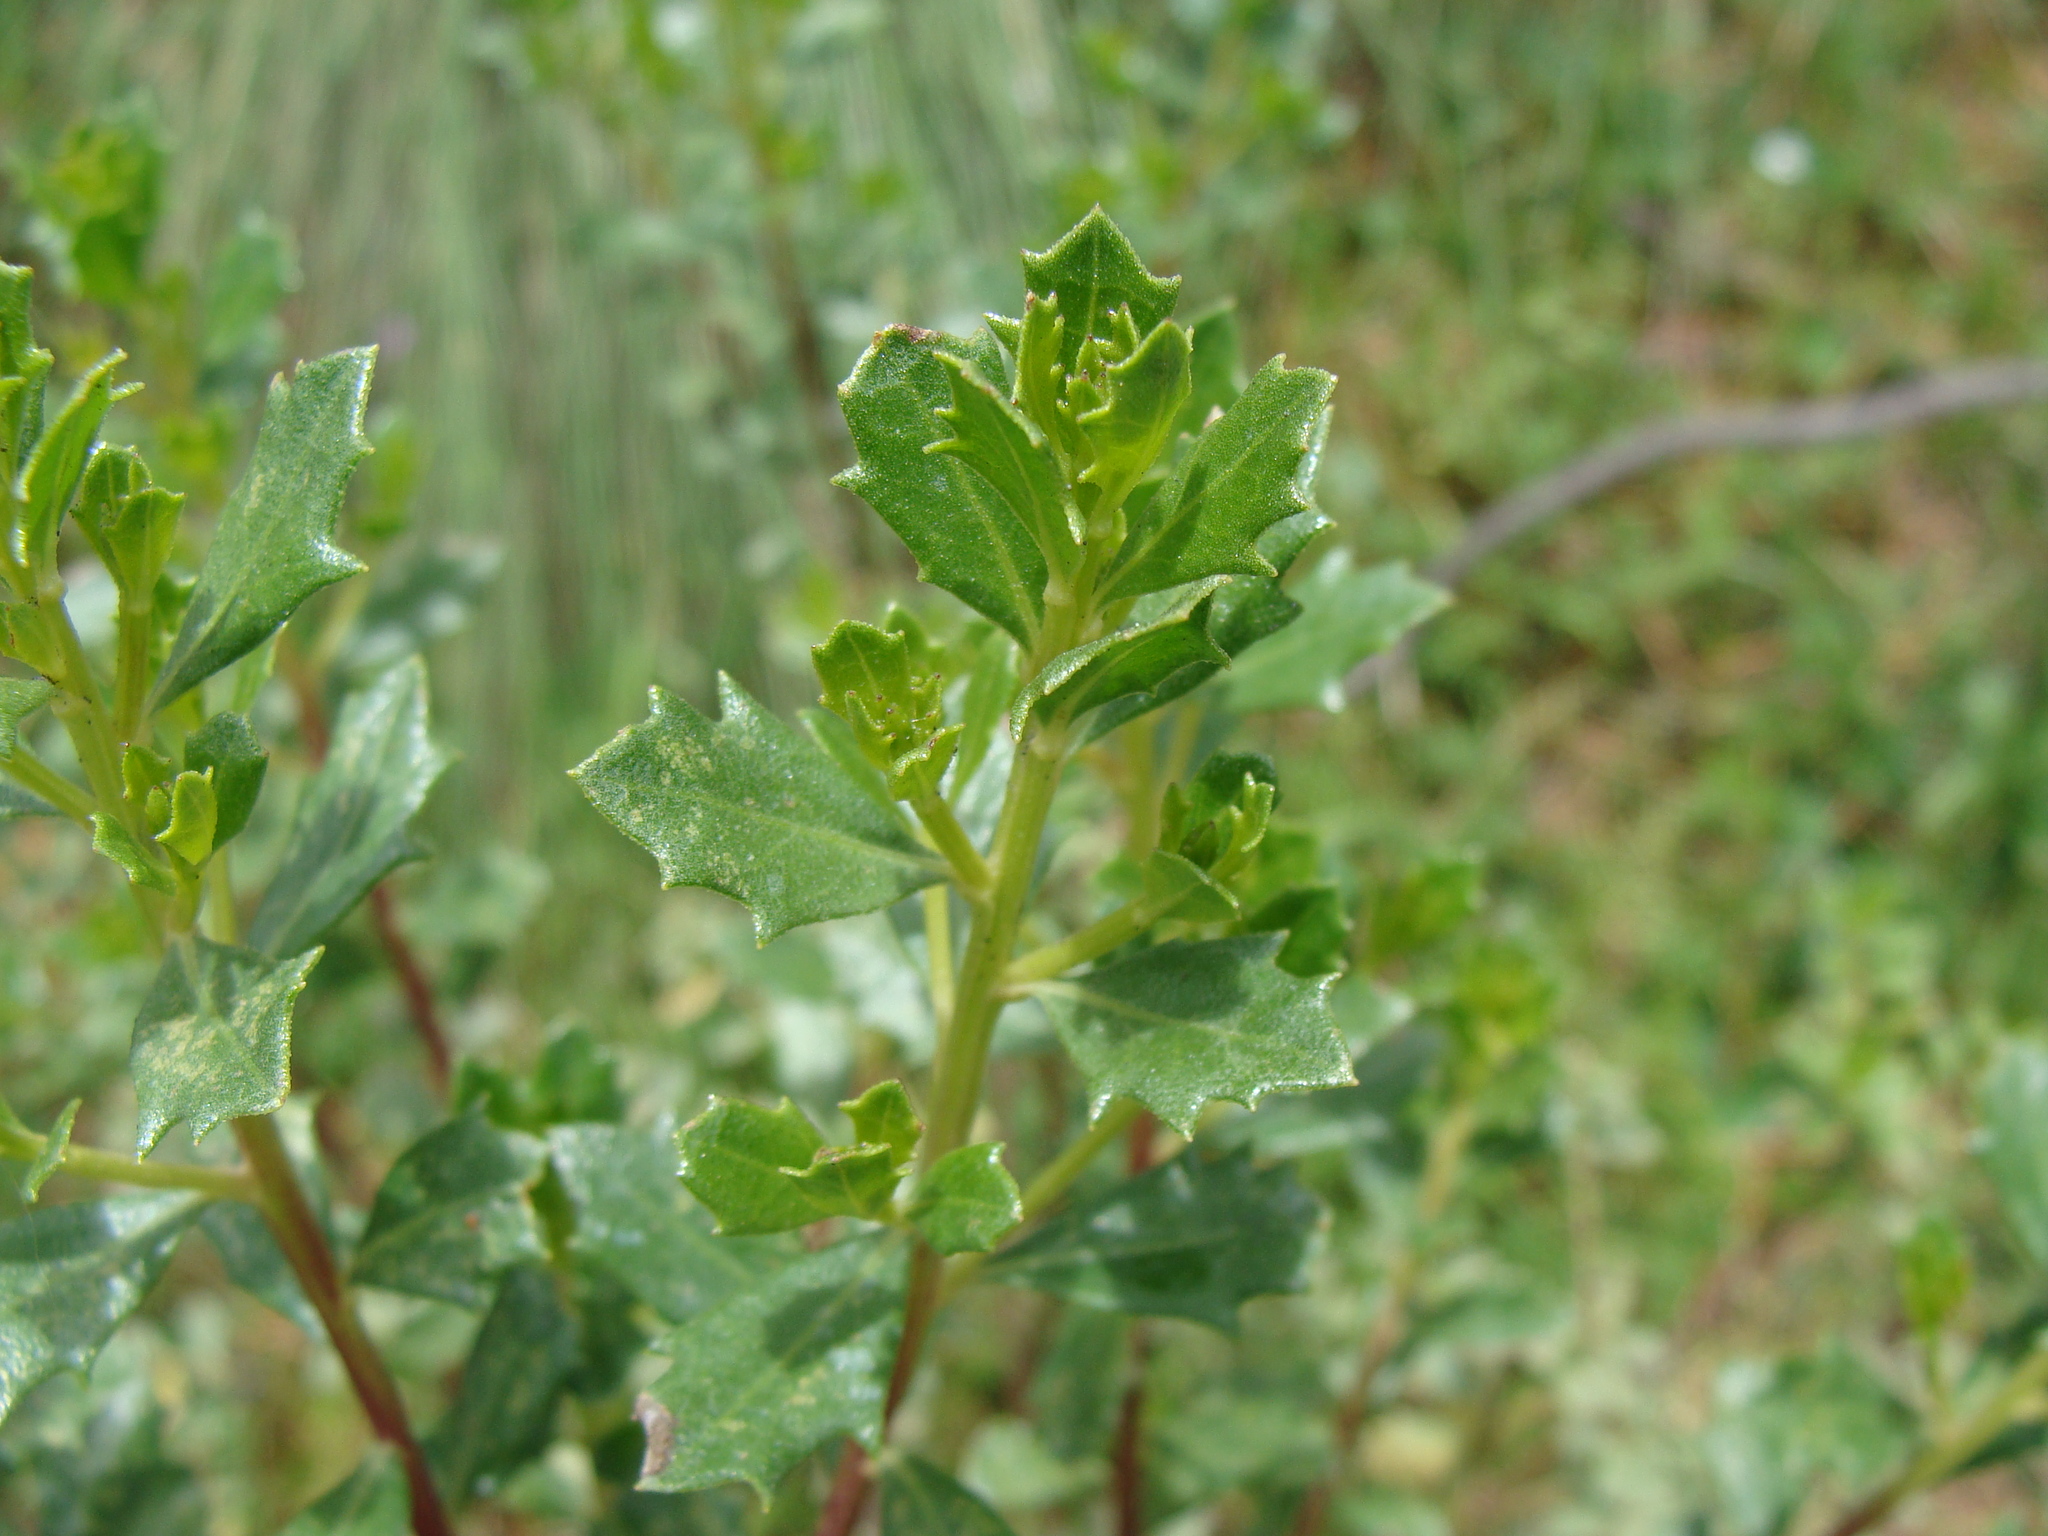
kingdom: Plantae
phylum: Tracheophyta
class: Magnoliopsida
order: Asterales
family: Asteraceae
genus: Baccharis
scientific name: Baccharis conferta
